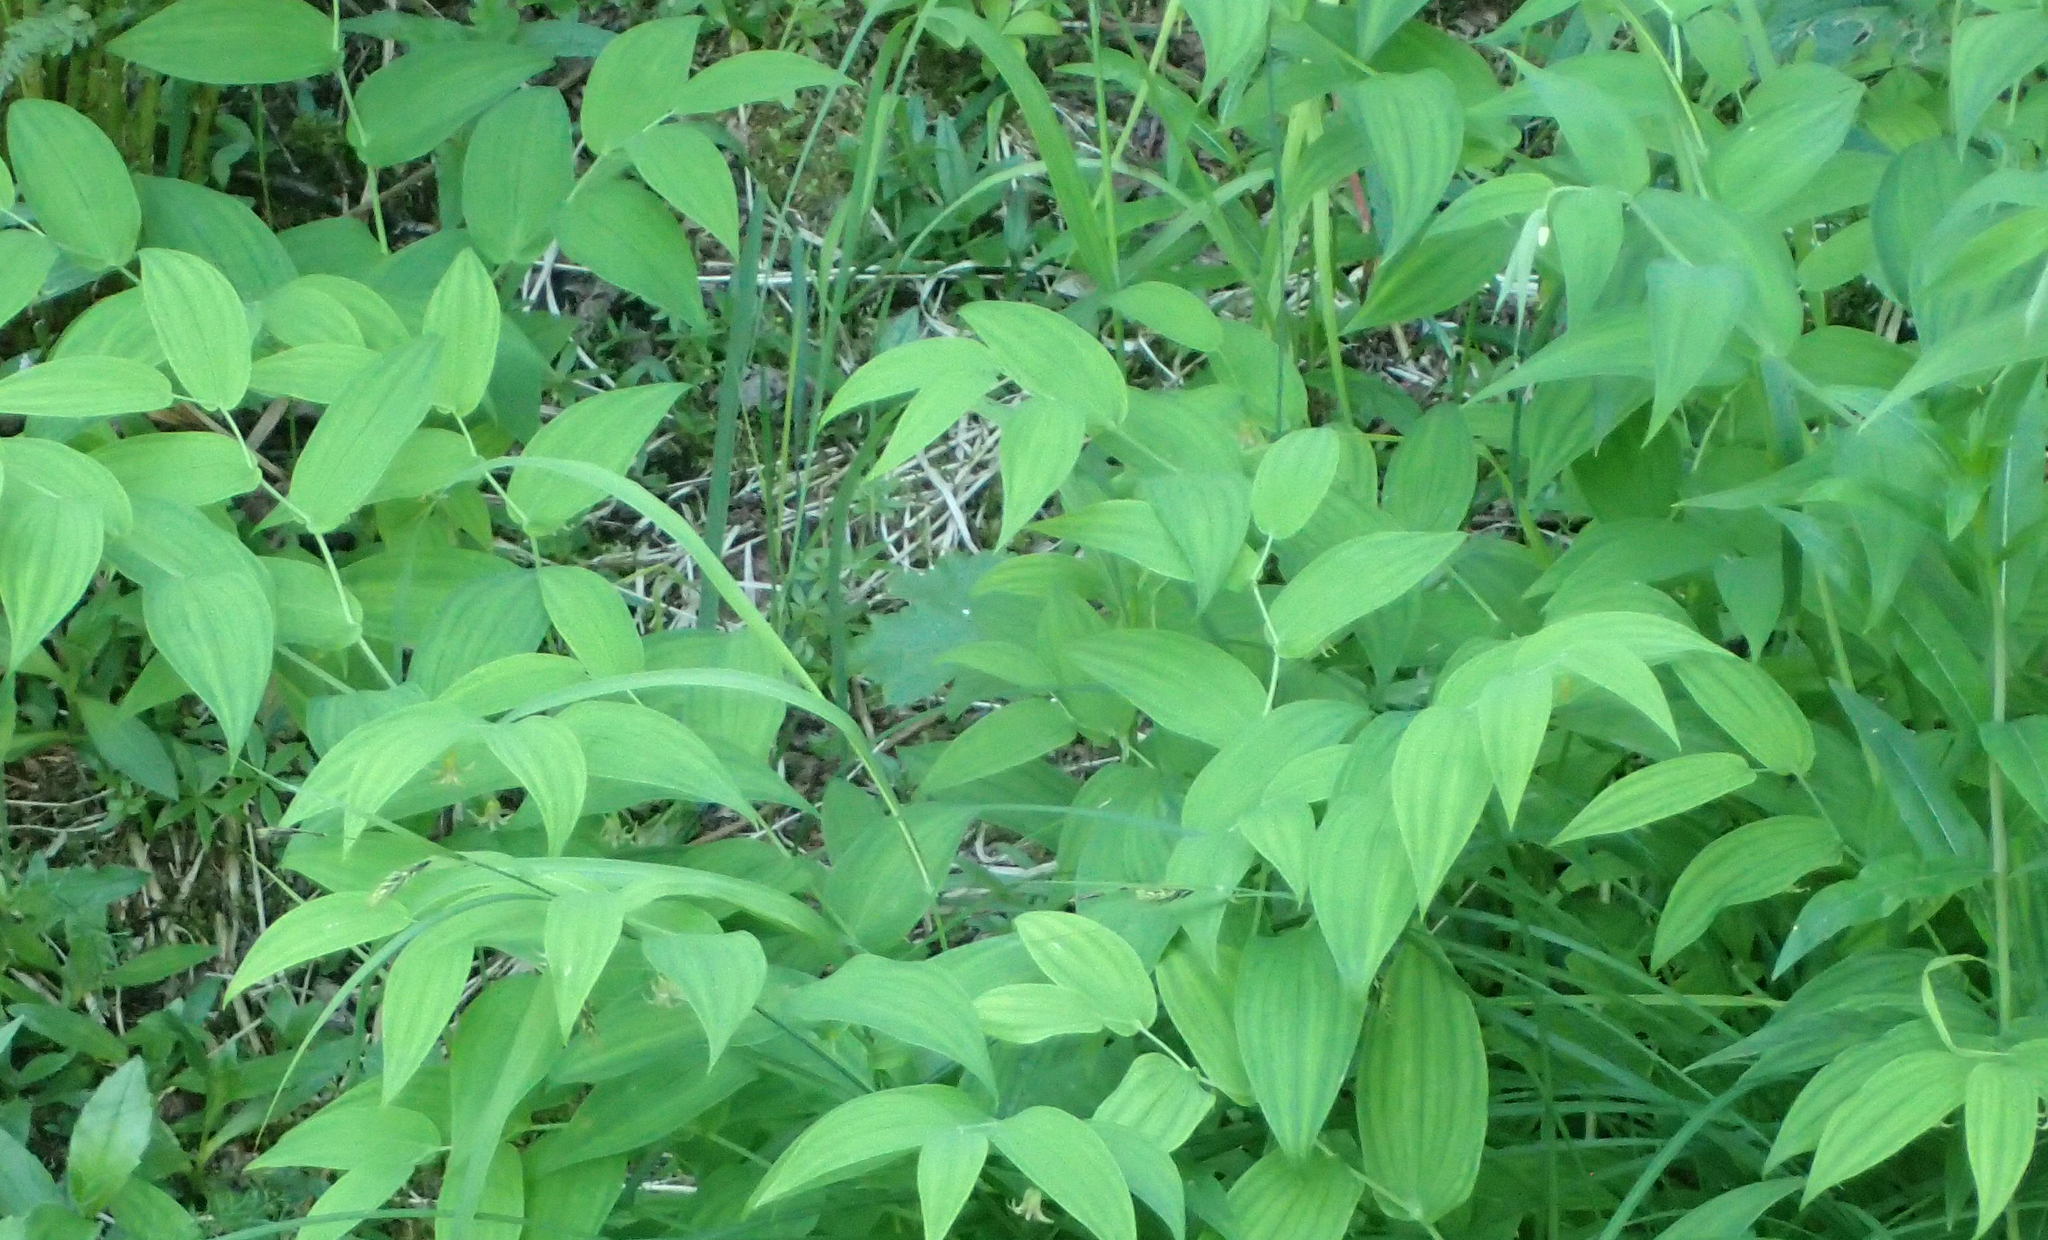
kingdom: Plantae
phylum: Tracheophyta
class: Liliopsida
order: Liliales
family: Liliaceae
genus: Streptopus
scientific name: Streptopus amplexifolius
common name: Clasp twisted stalk
